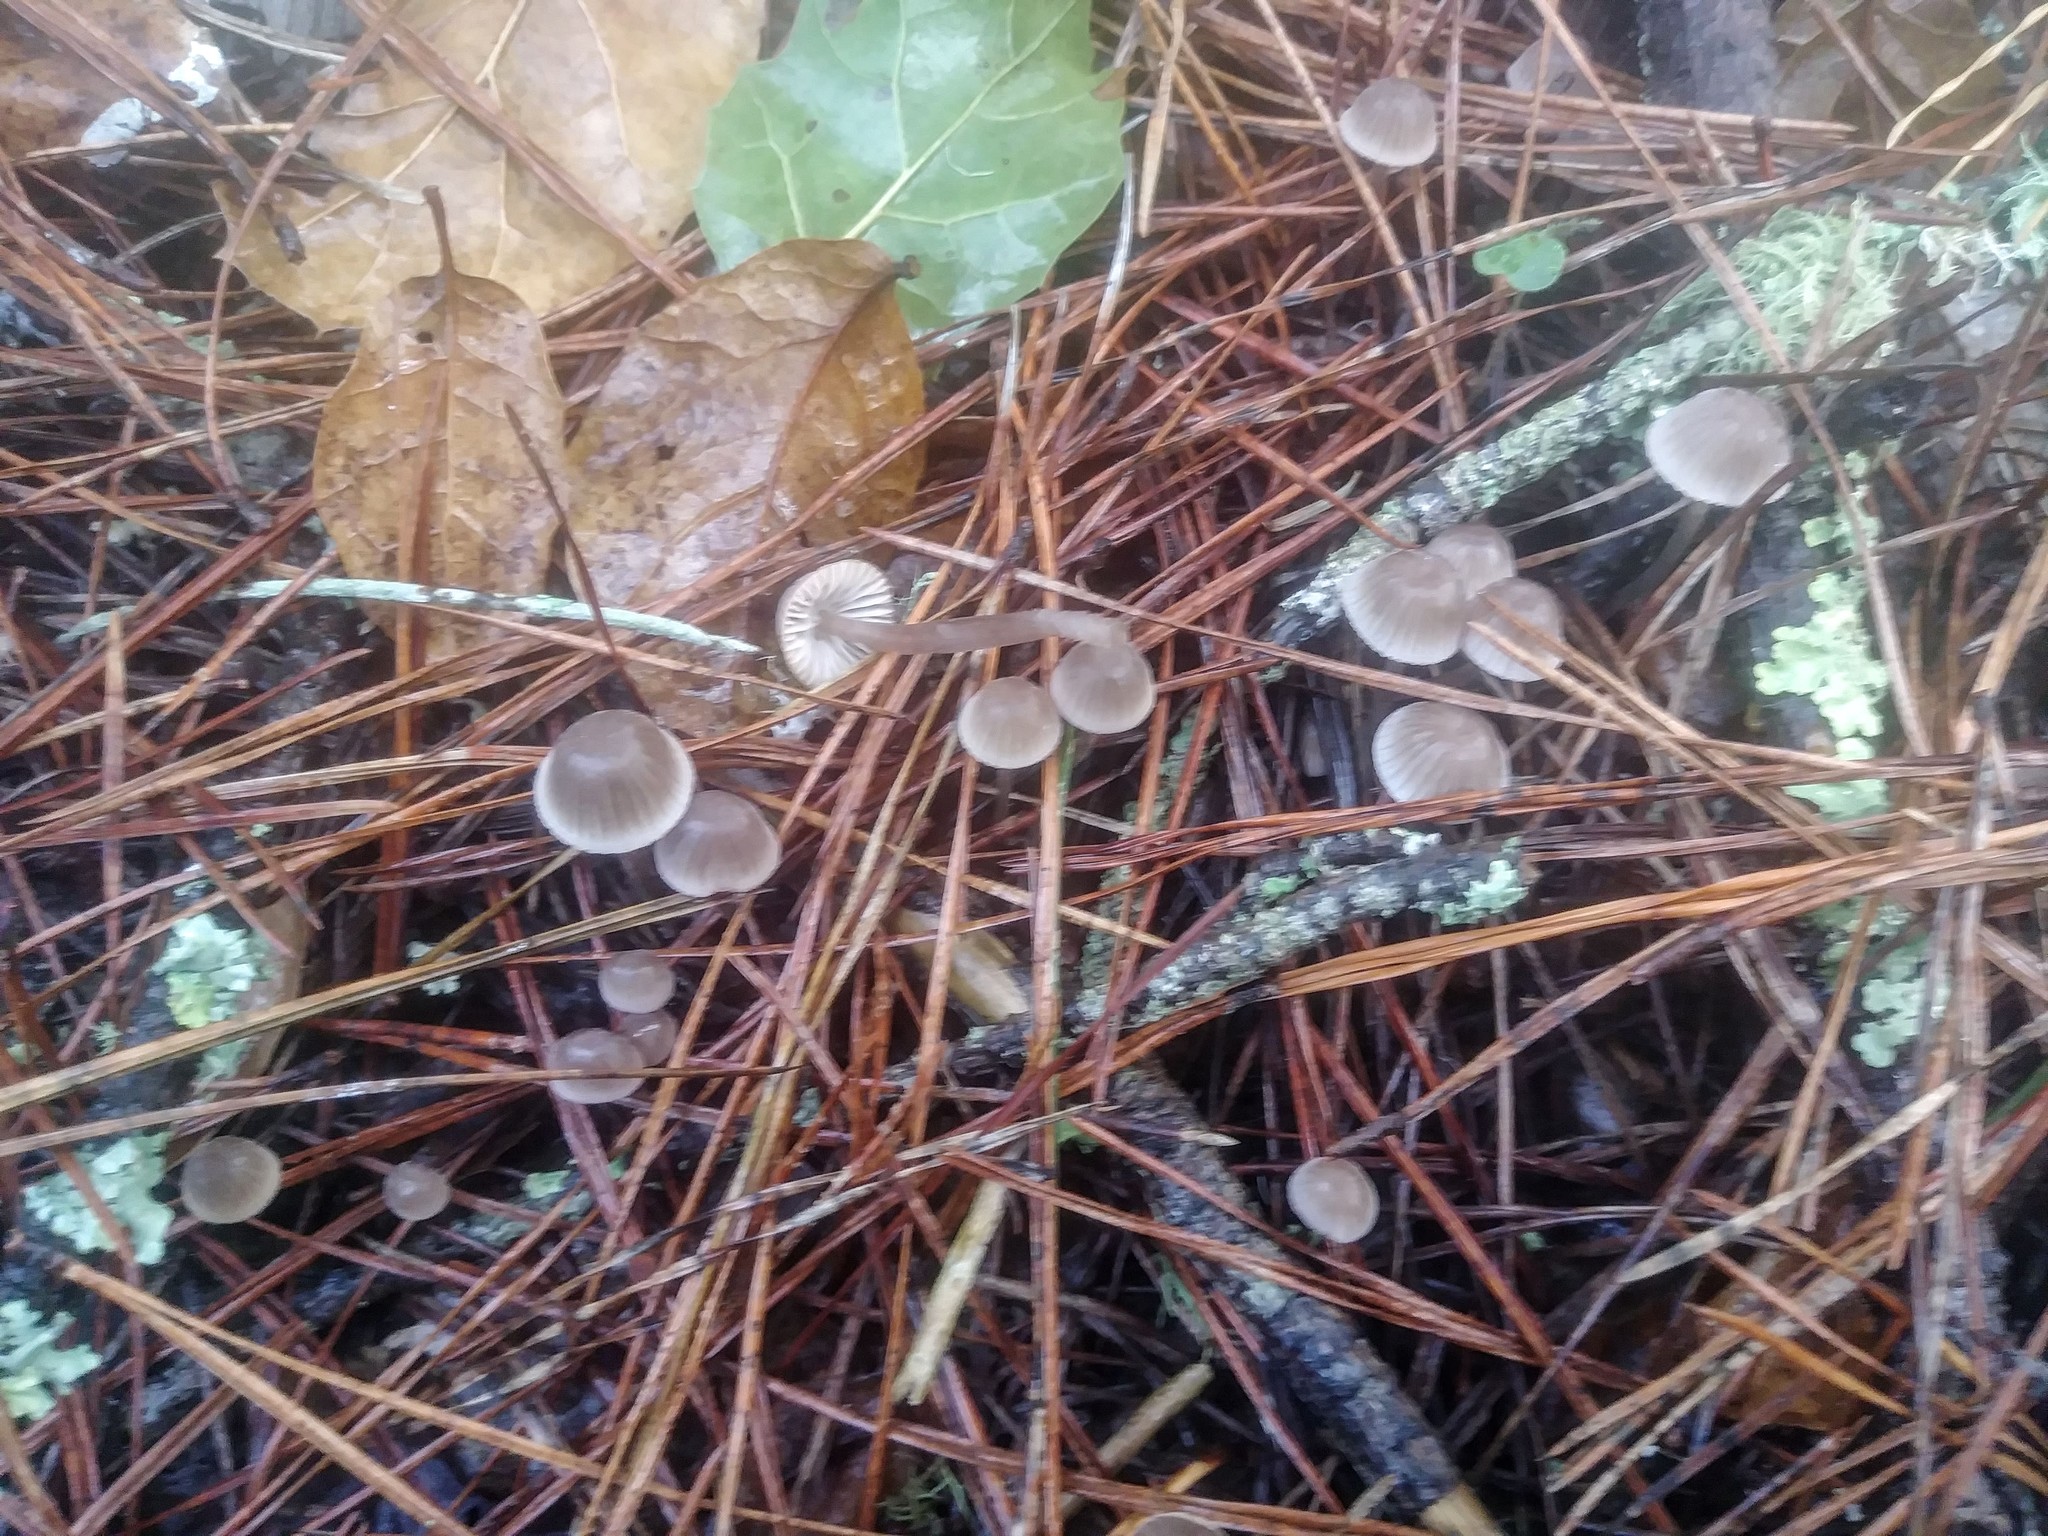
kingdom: Fungi
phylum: Basidiomycota
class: Agaricomycetes
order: Agaricales
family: Mycenaceae
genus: Mycena
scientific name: Mycena capillaripes
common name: Pinkedge bonnet
